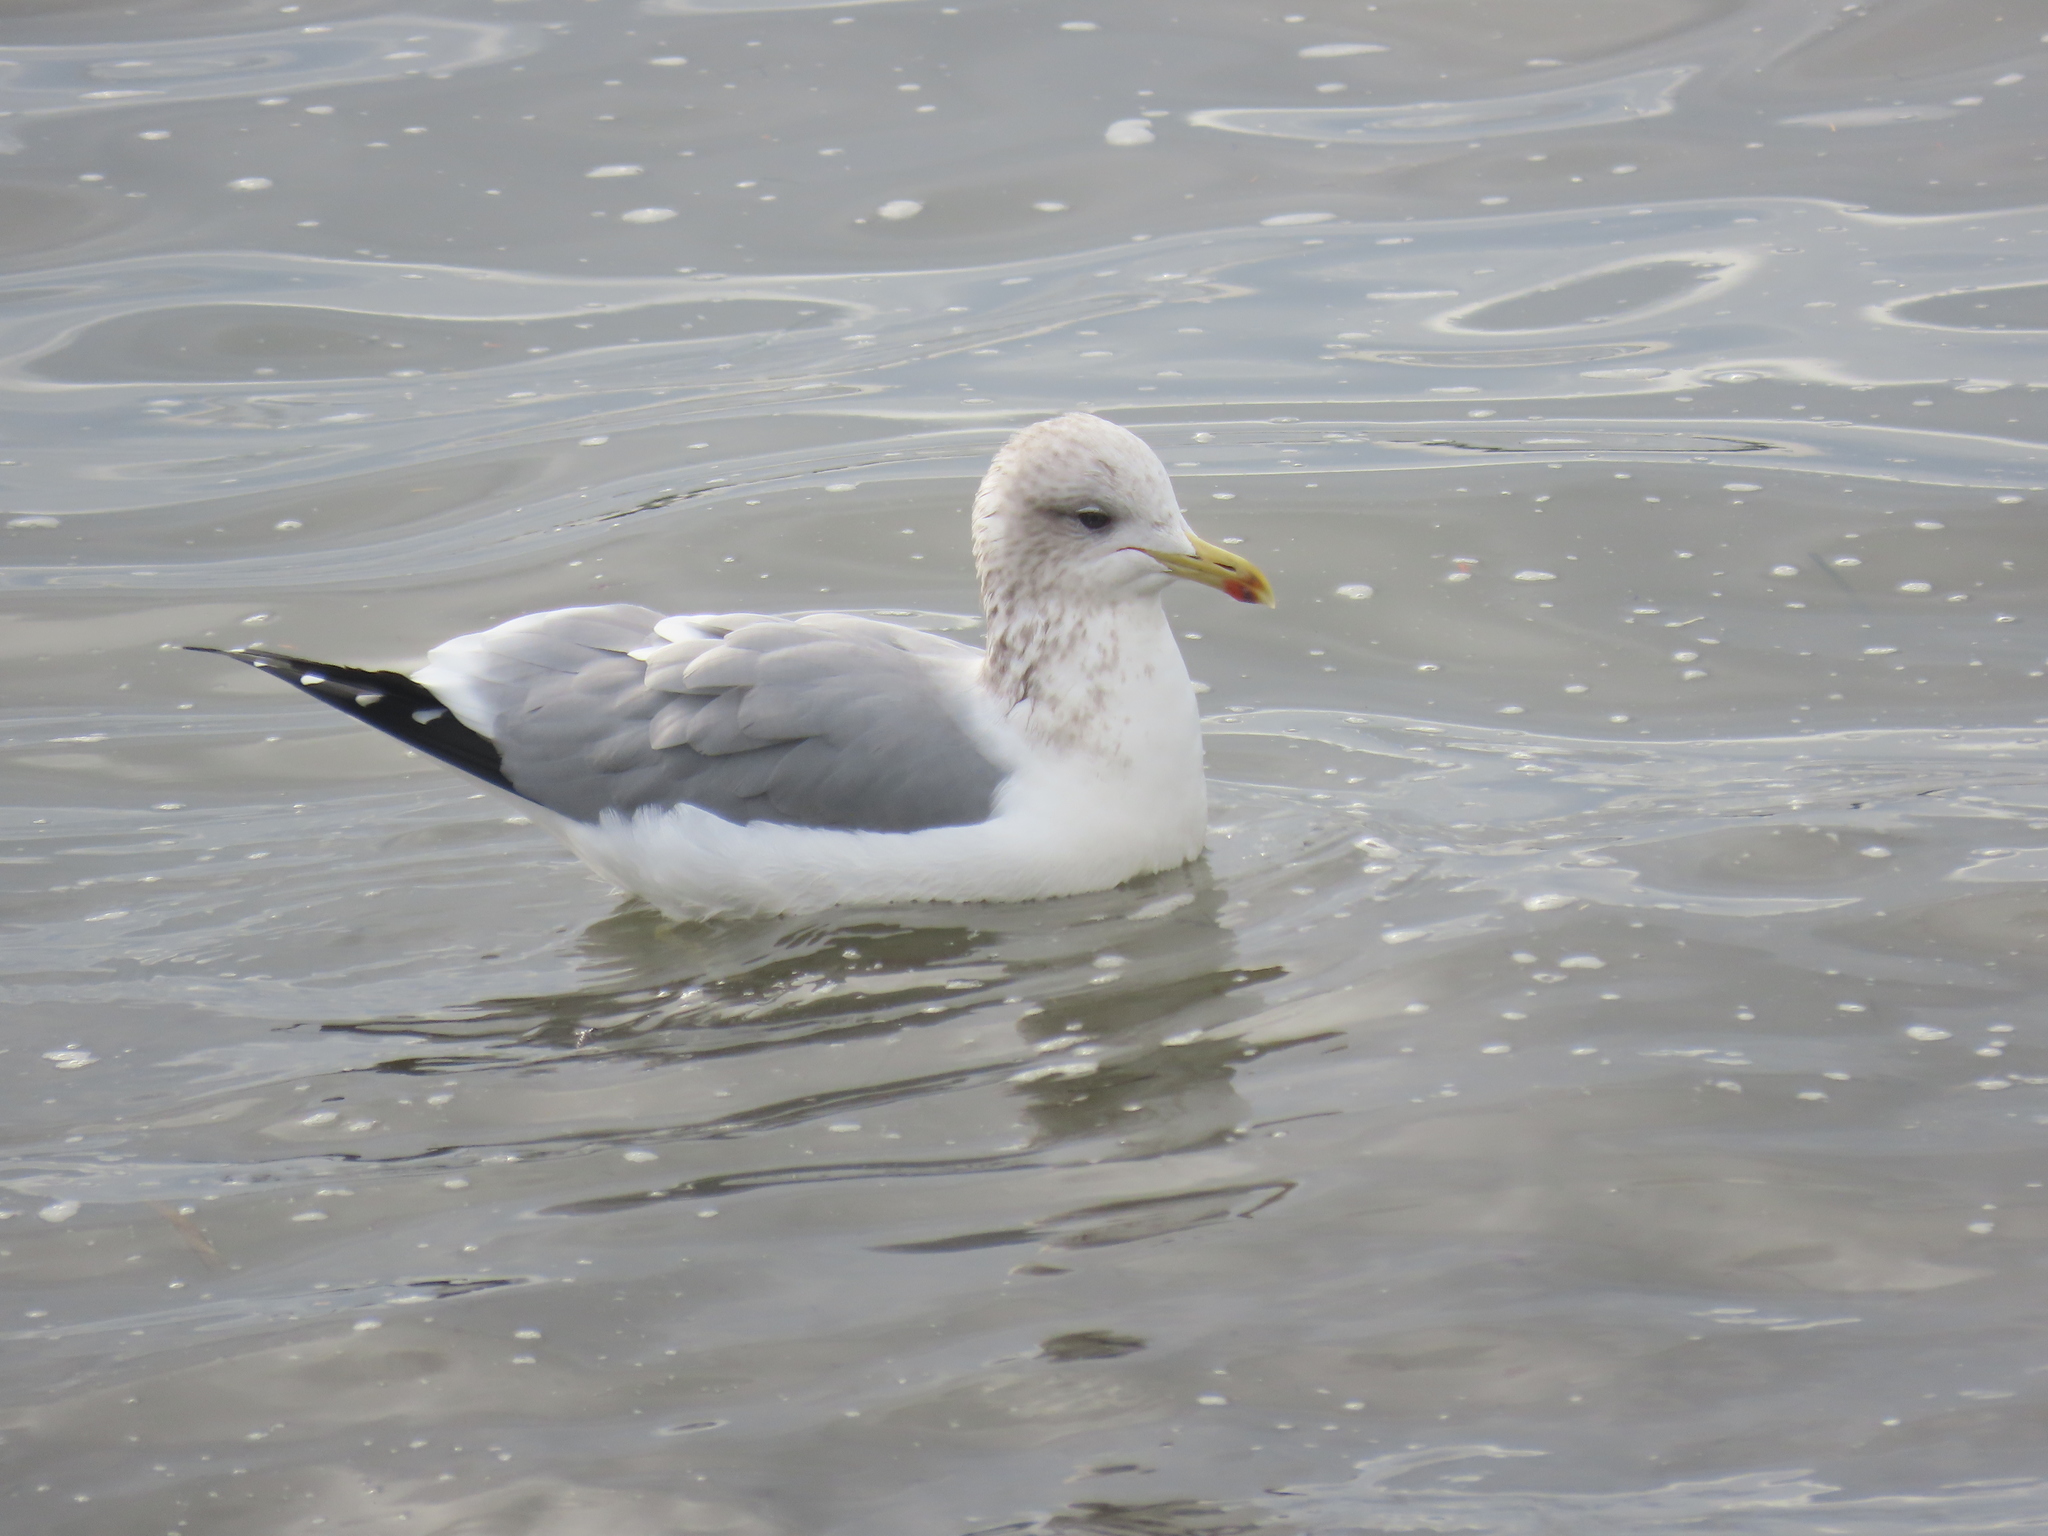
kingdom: Animalia
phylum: Chordata
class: Aves
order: Charadriiformes
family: Laridae
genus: Larus
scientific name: Larus californicus
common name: California gull
